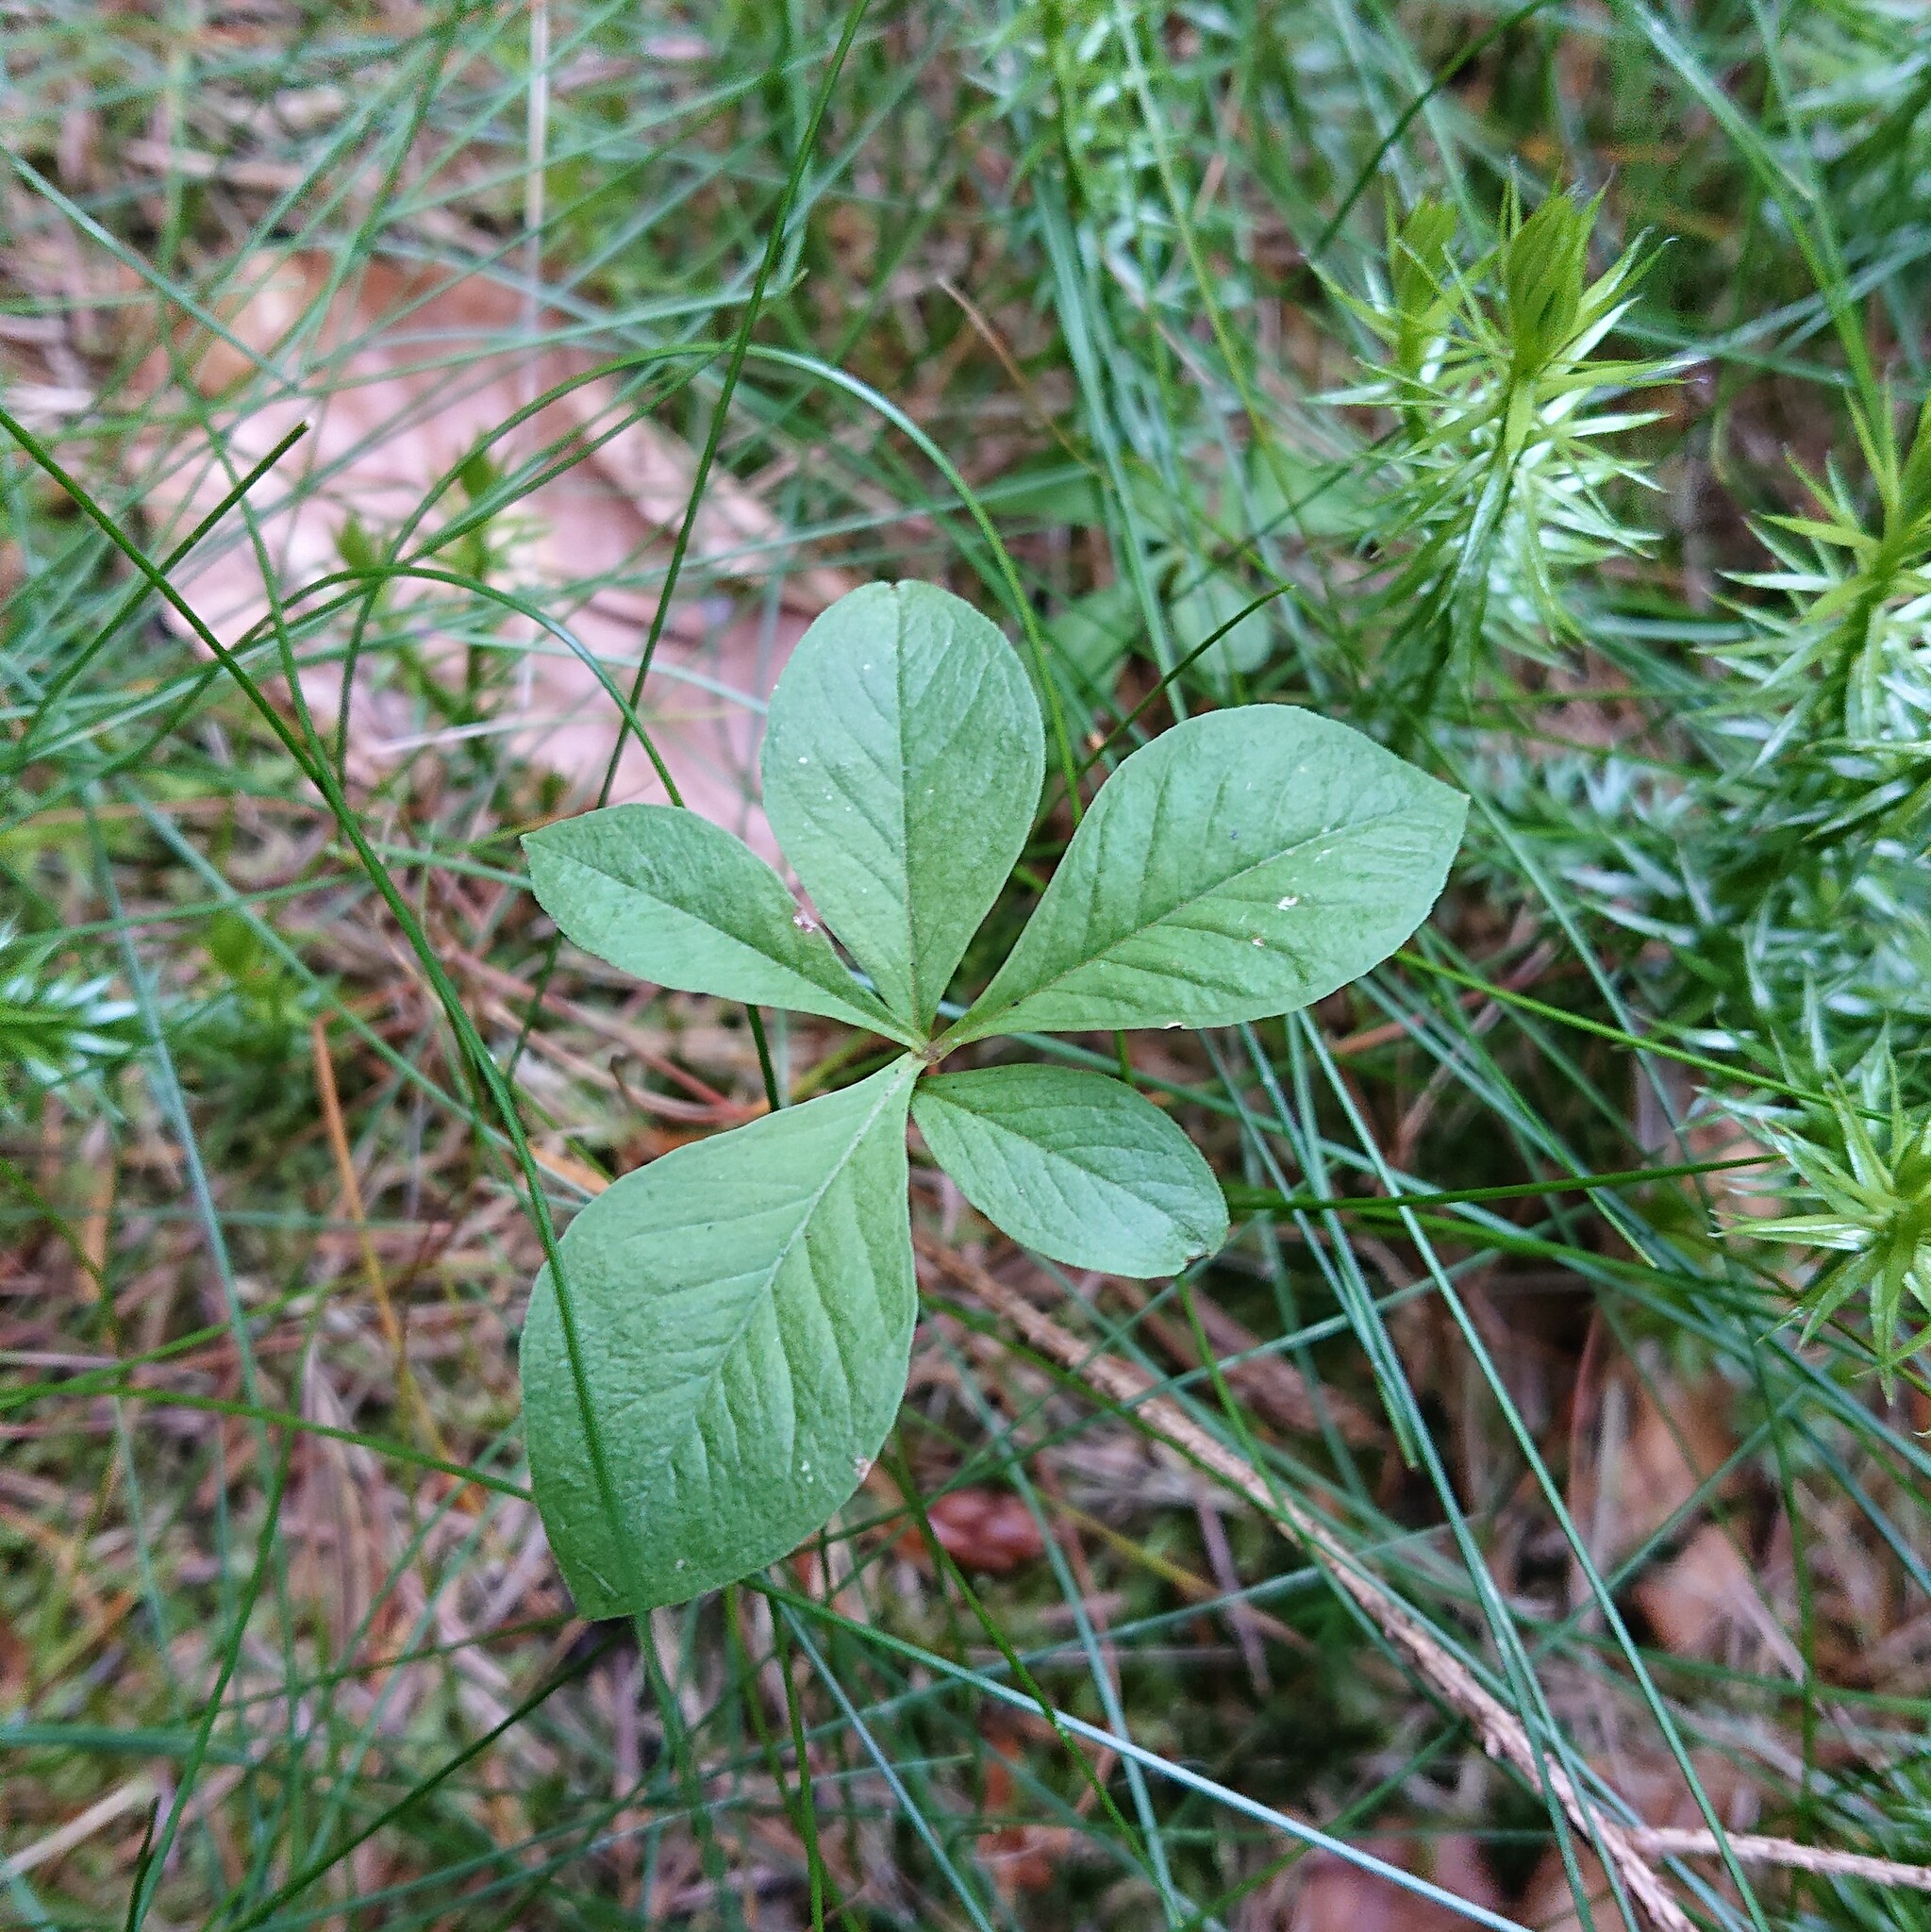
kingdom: Plantae
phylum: Tracheophyta
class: Magnoliopsida
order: Ericales
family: Primulaceae
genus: Lysimachia
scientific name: Lysimachia europaea
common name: Arctic starflower
